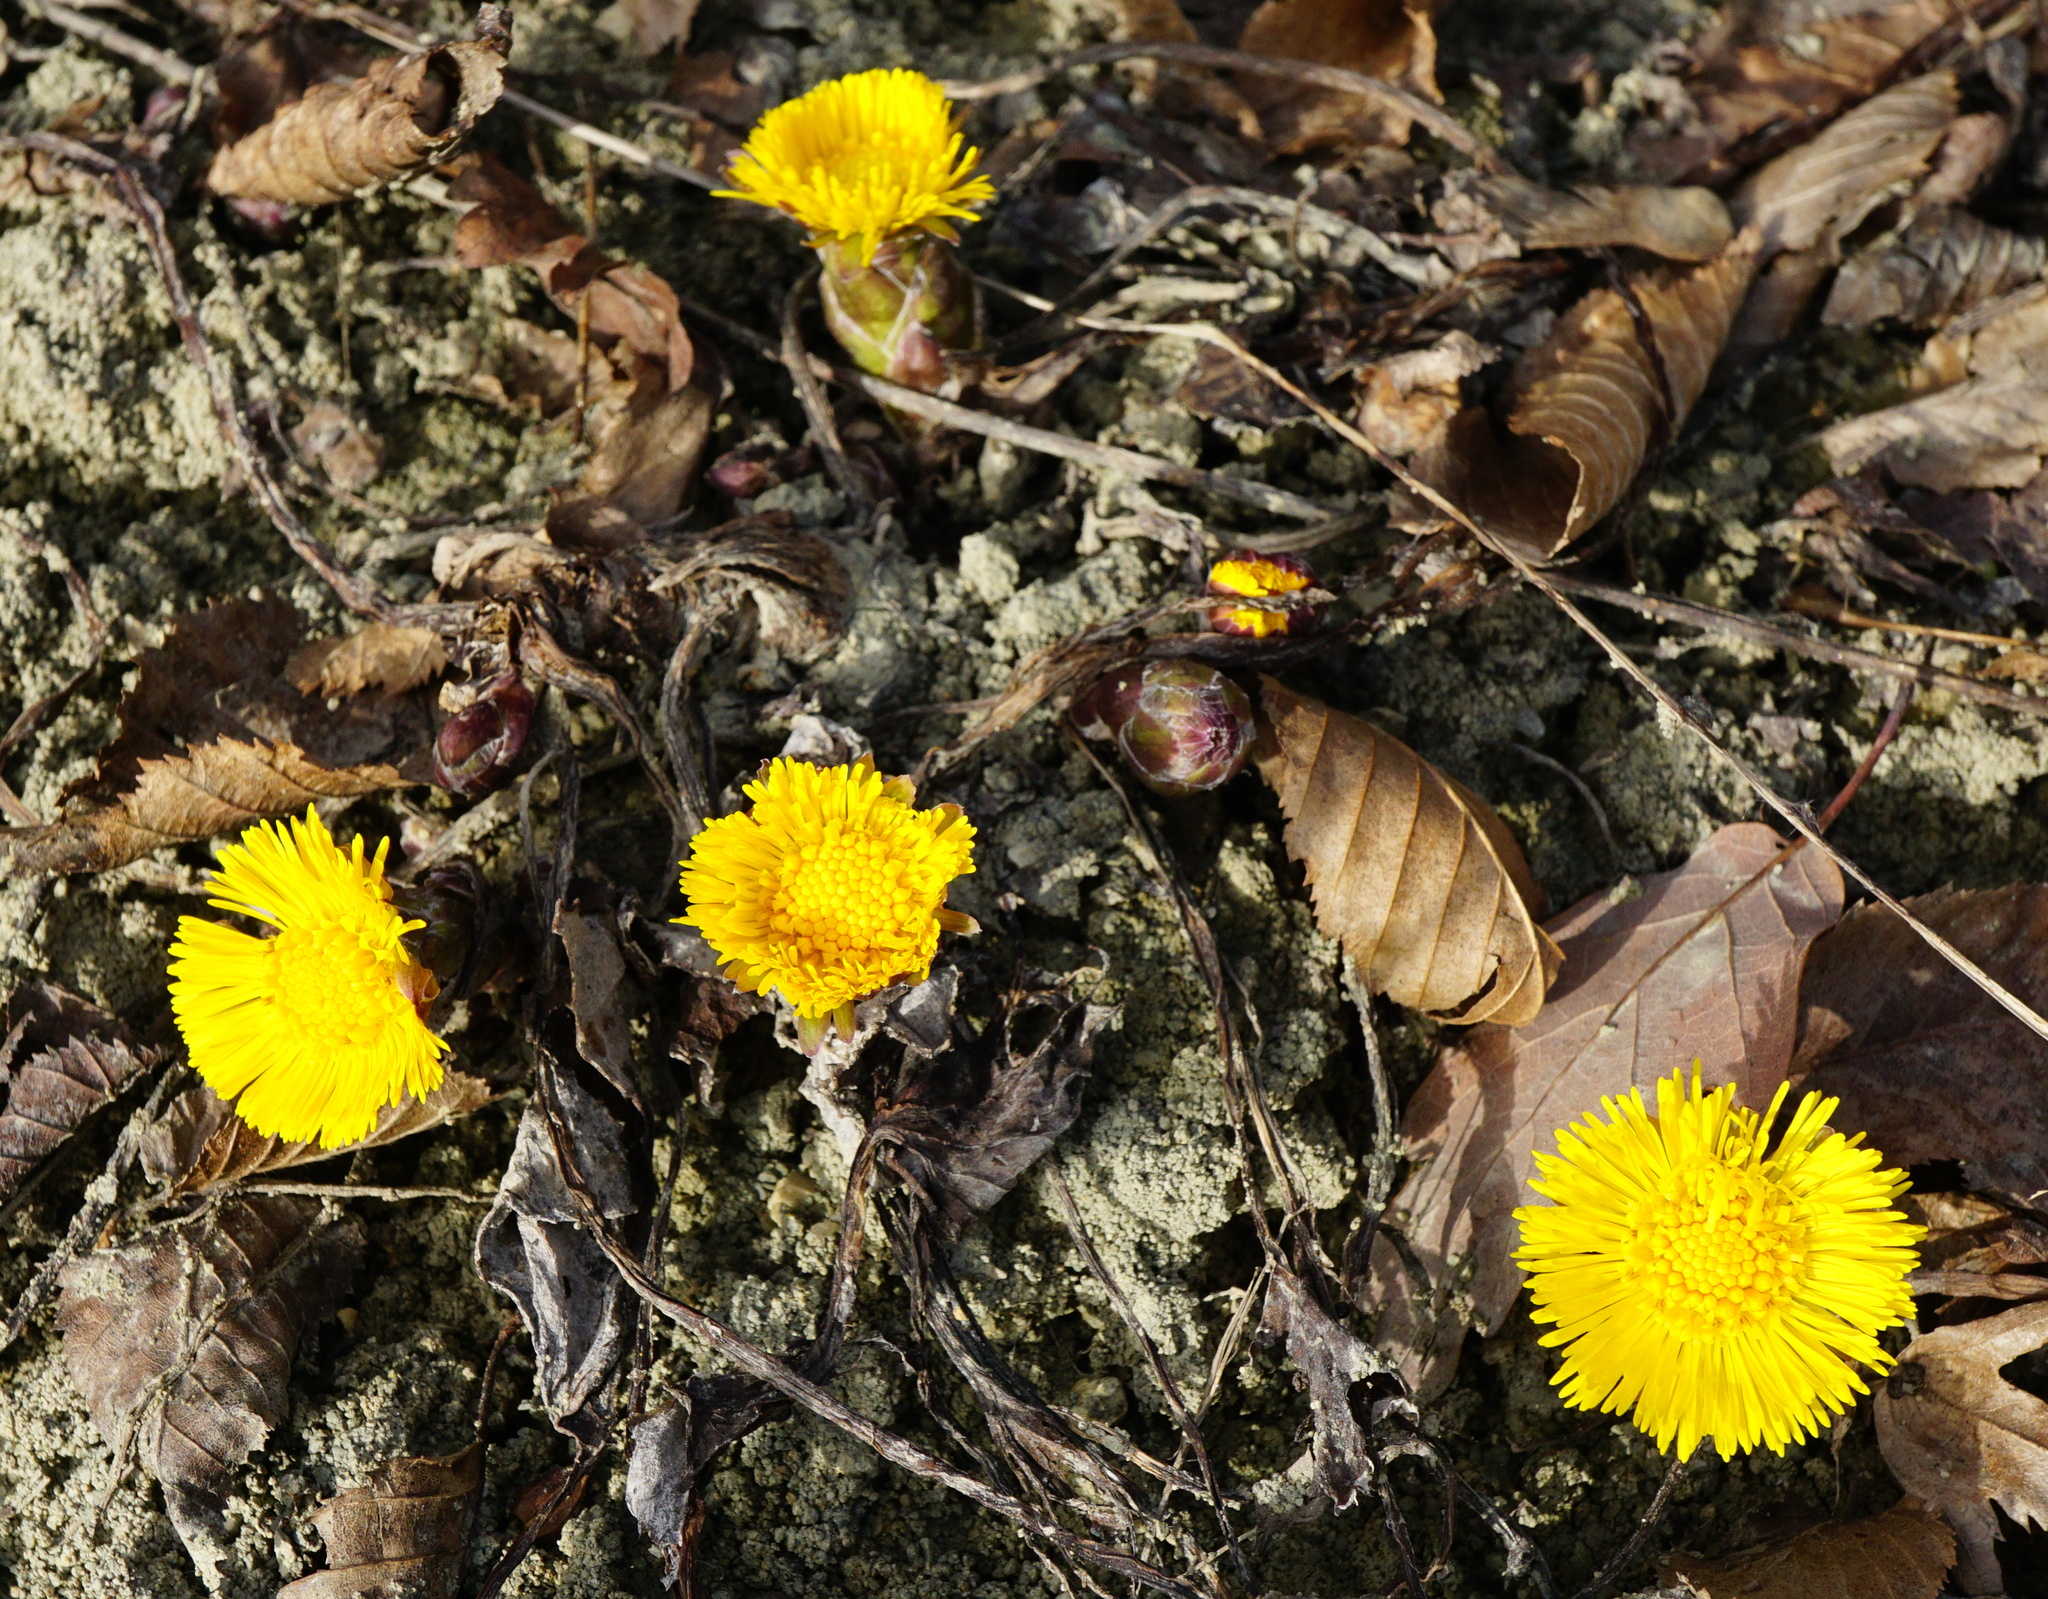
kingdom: Plantae
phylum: Tracheophyta
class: Magnoliopsida
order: Asterales
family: Asteraceae
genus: Tussilago
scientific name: Tussilago farfara
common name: Coltsfoot
